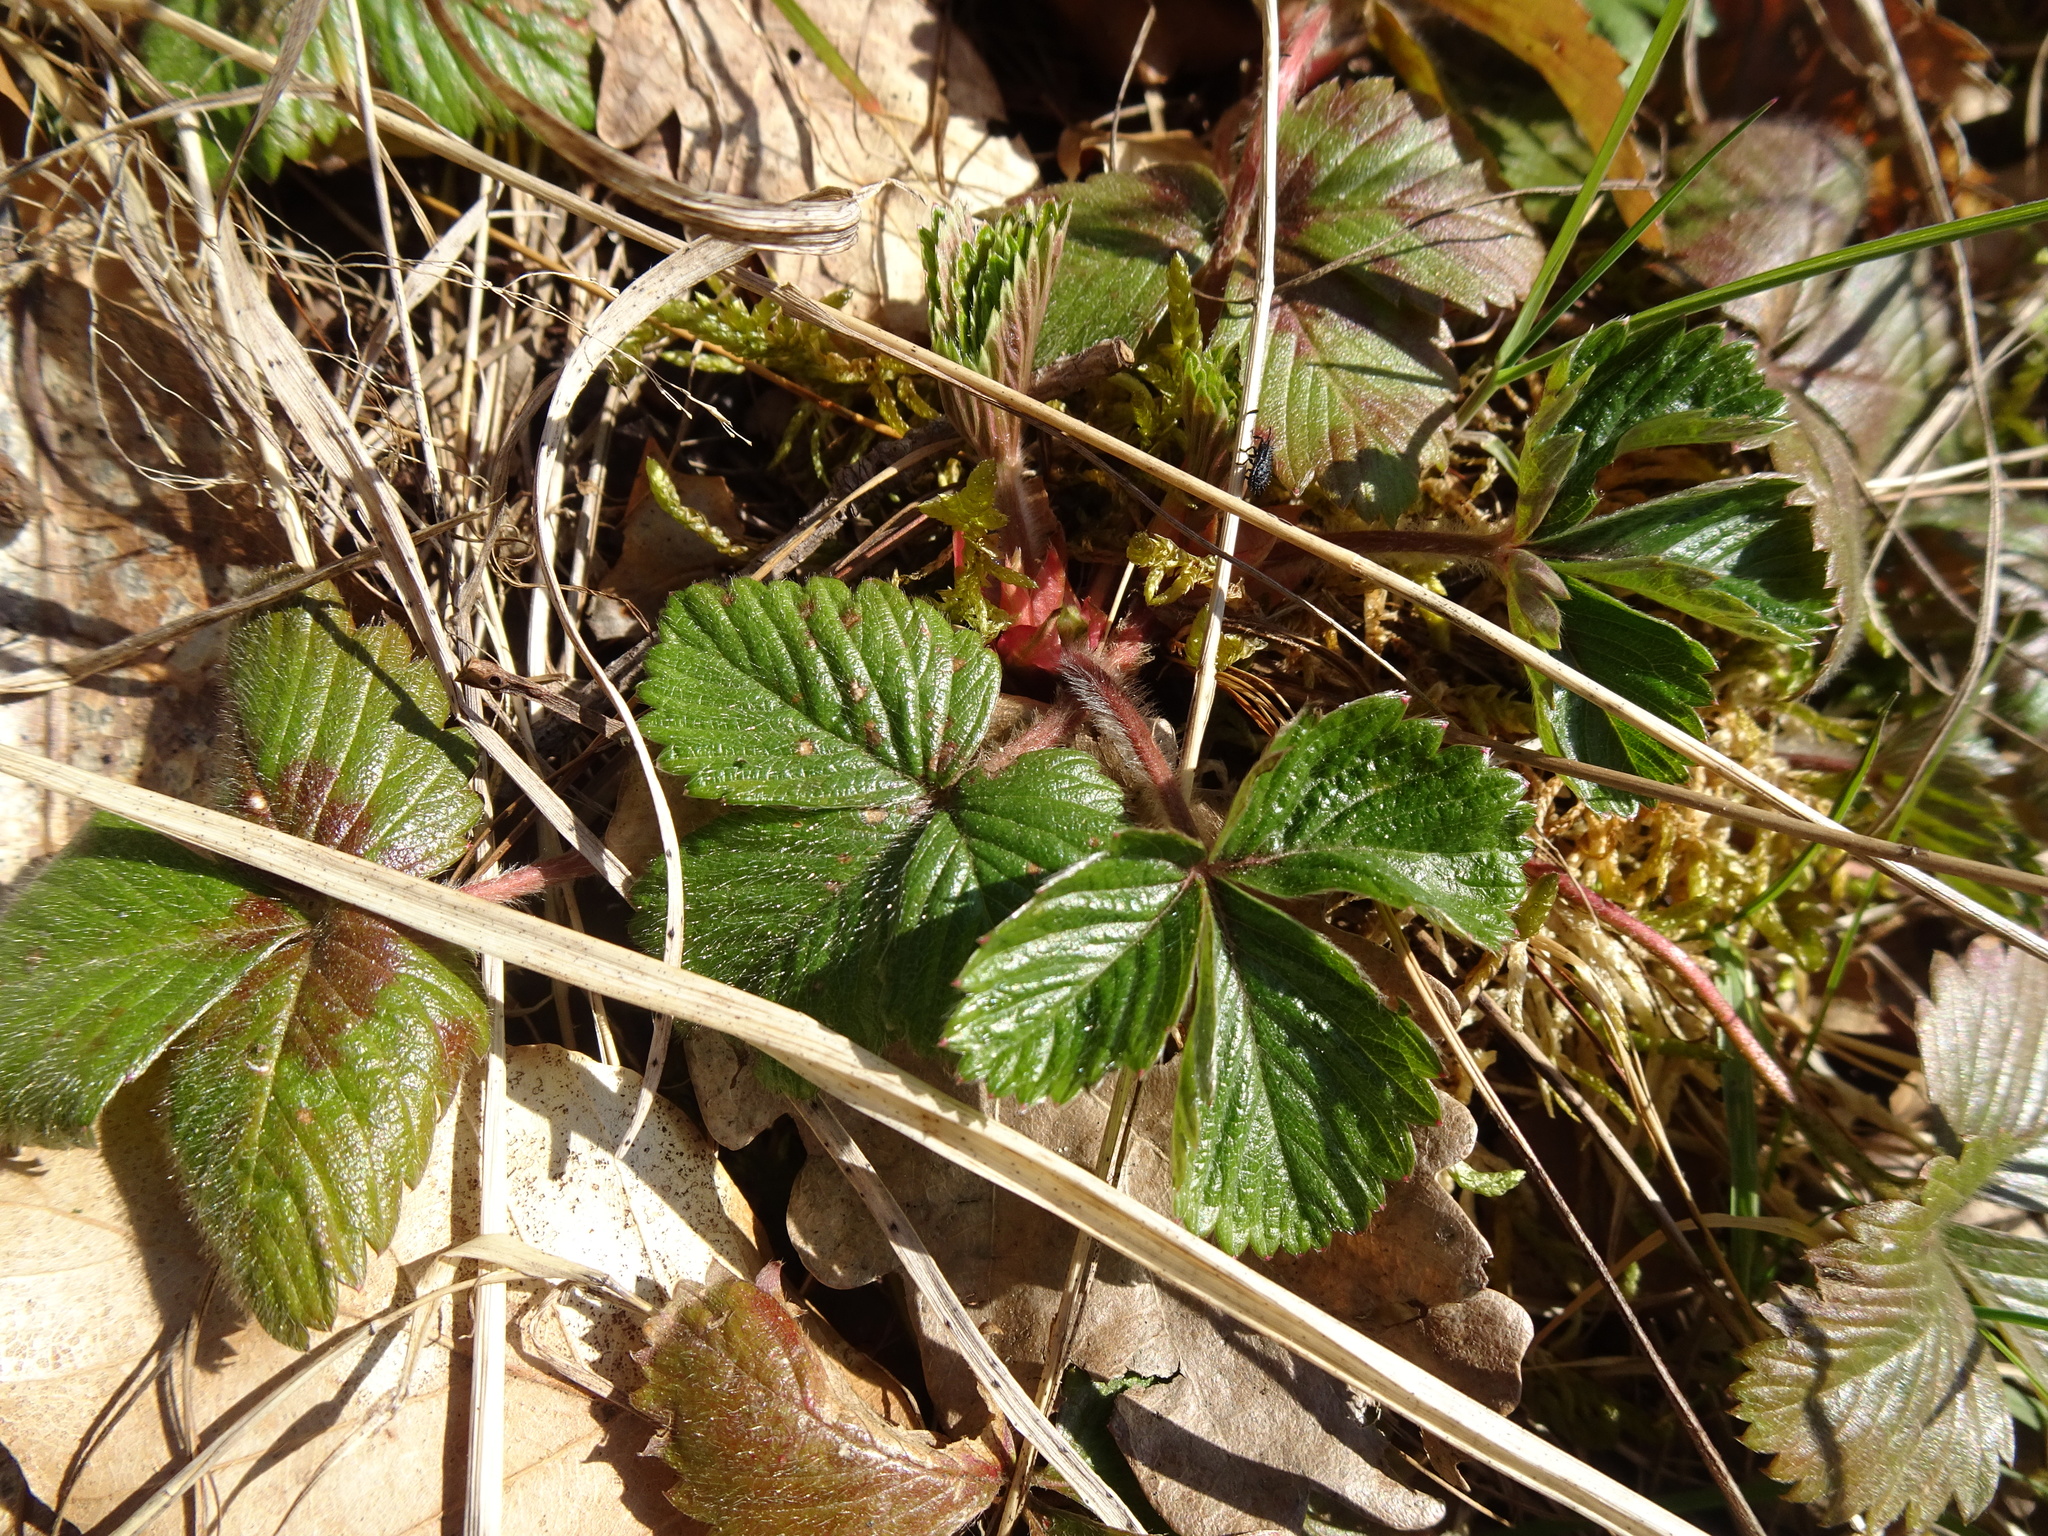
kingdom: Plantae
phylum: Tracheophyta
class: Magnoliopsida
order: Rosales
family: Rosaceae
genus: Fragaria
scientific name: Fragaria vesca
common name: Wild strawberry
